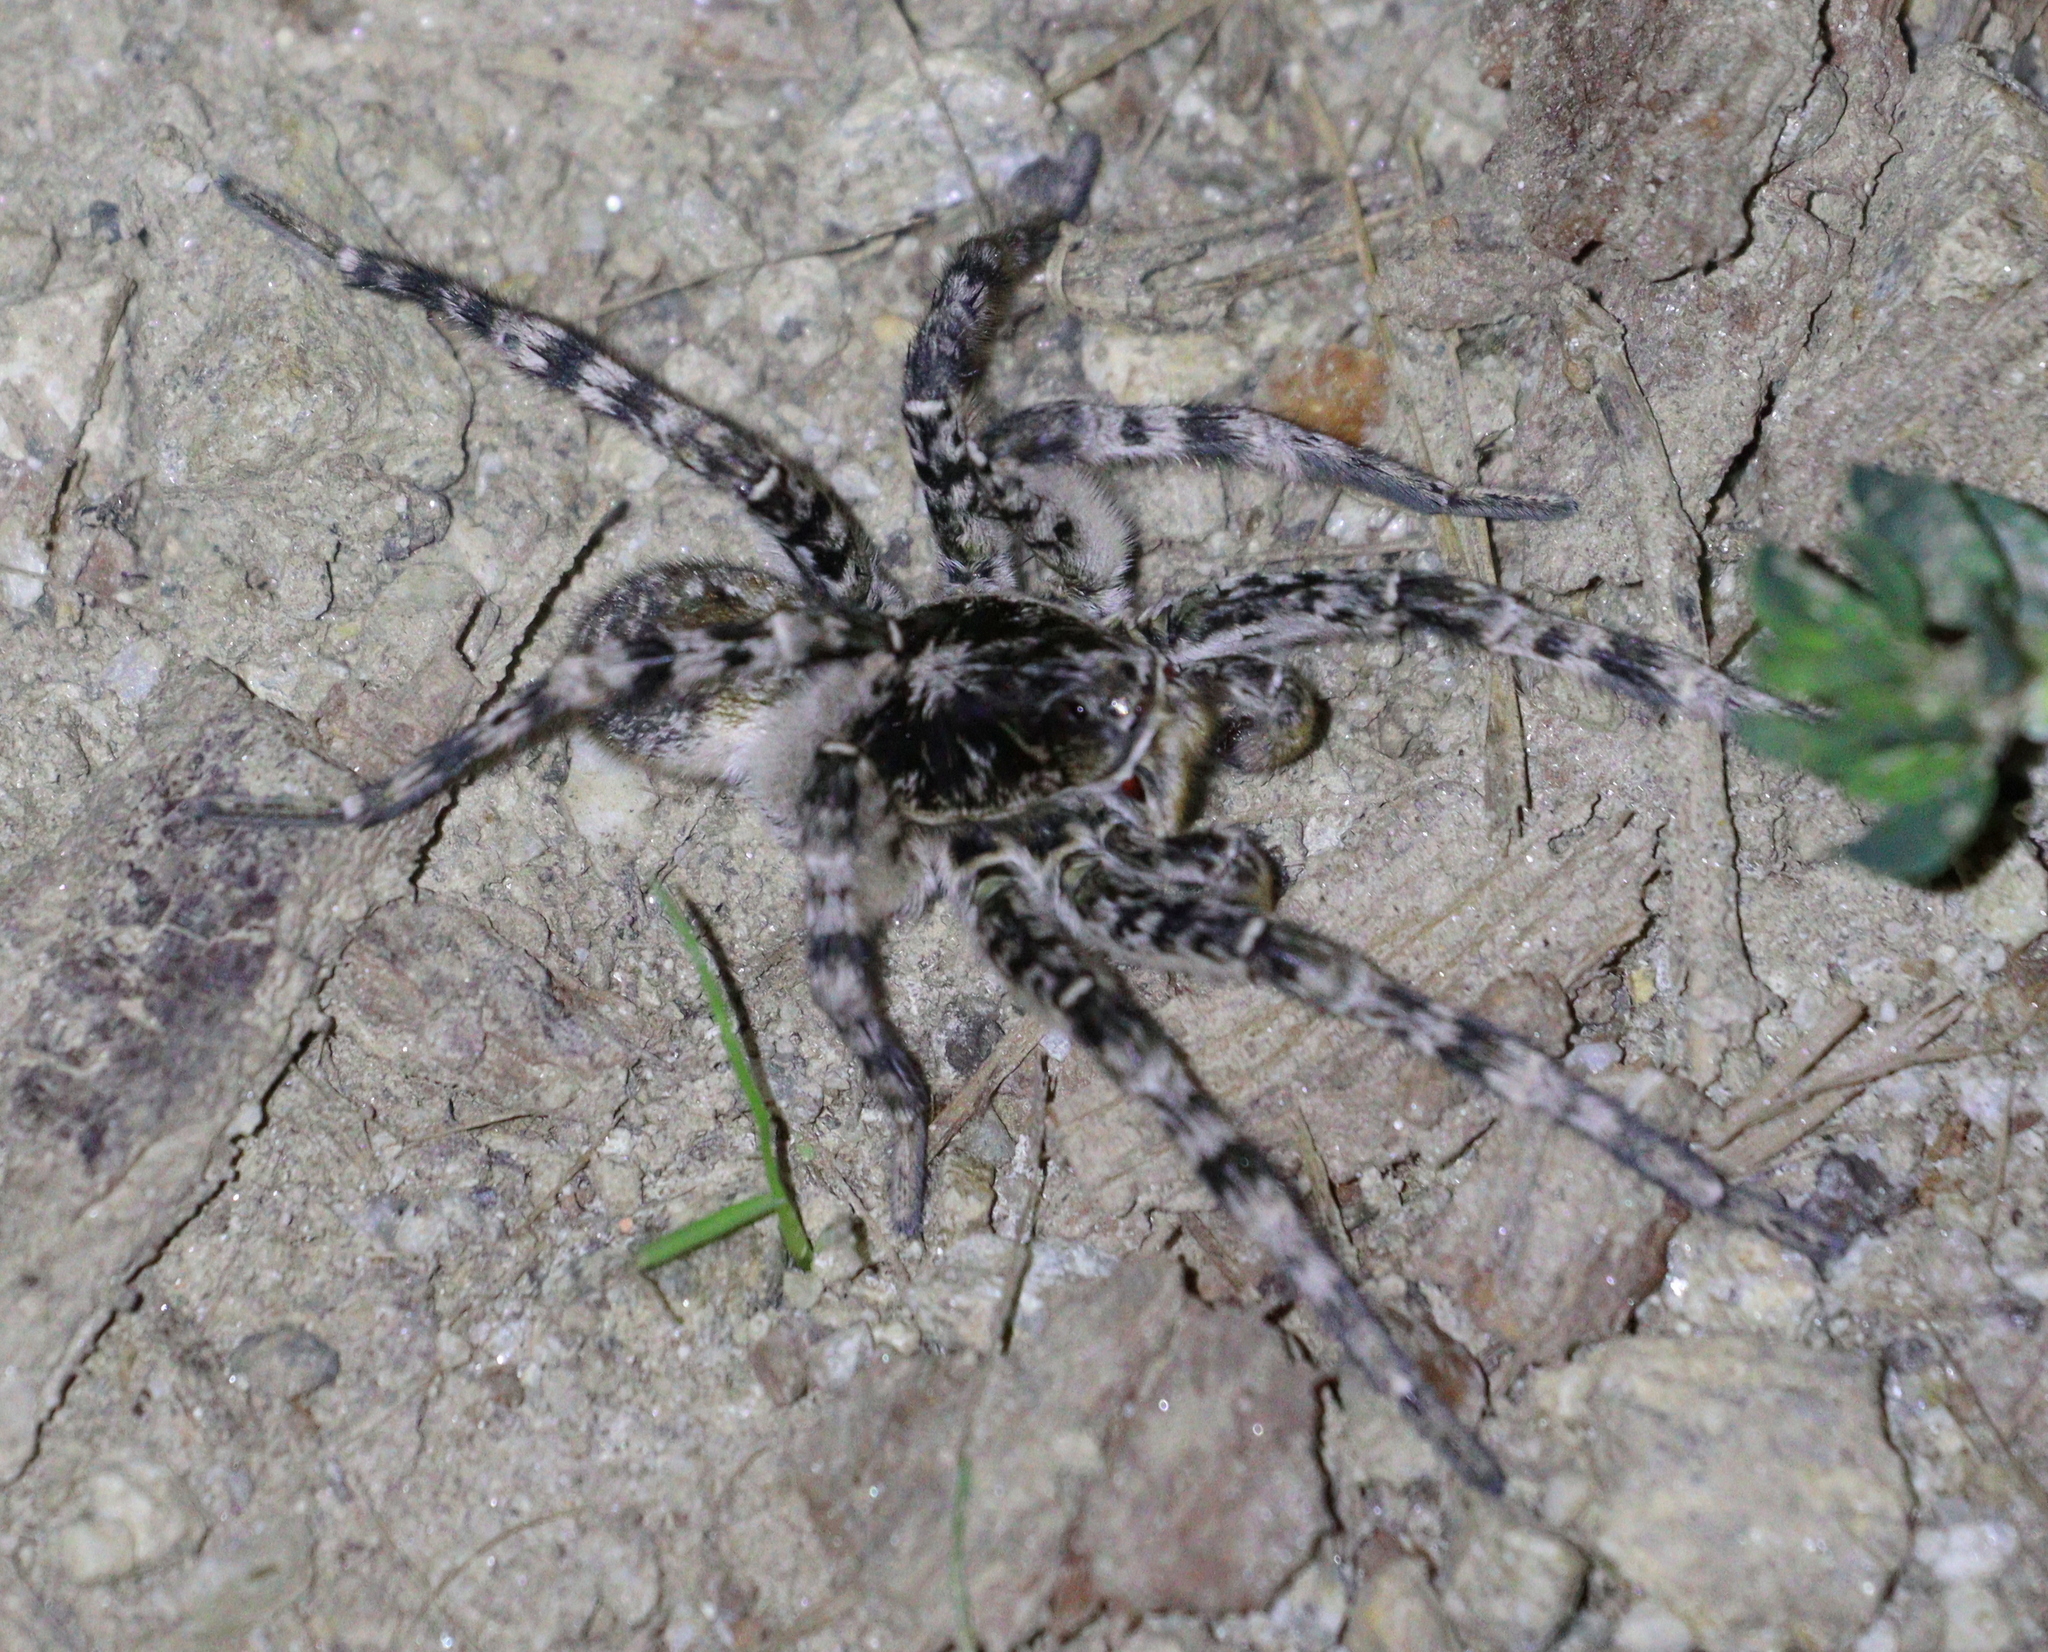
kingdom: Animalia
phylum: Arthropoda
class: Arachnida
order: Araneae
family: Lycosidae
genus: Lycosa
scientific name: Lycosa singoriensis
